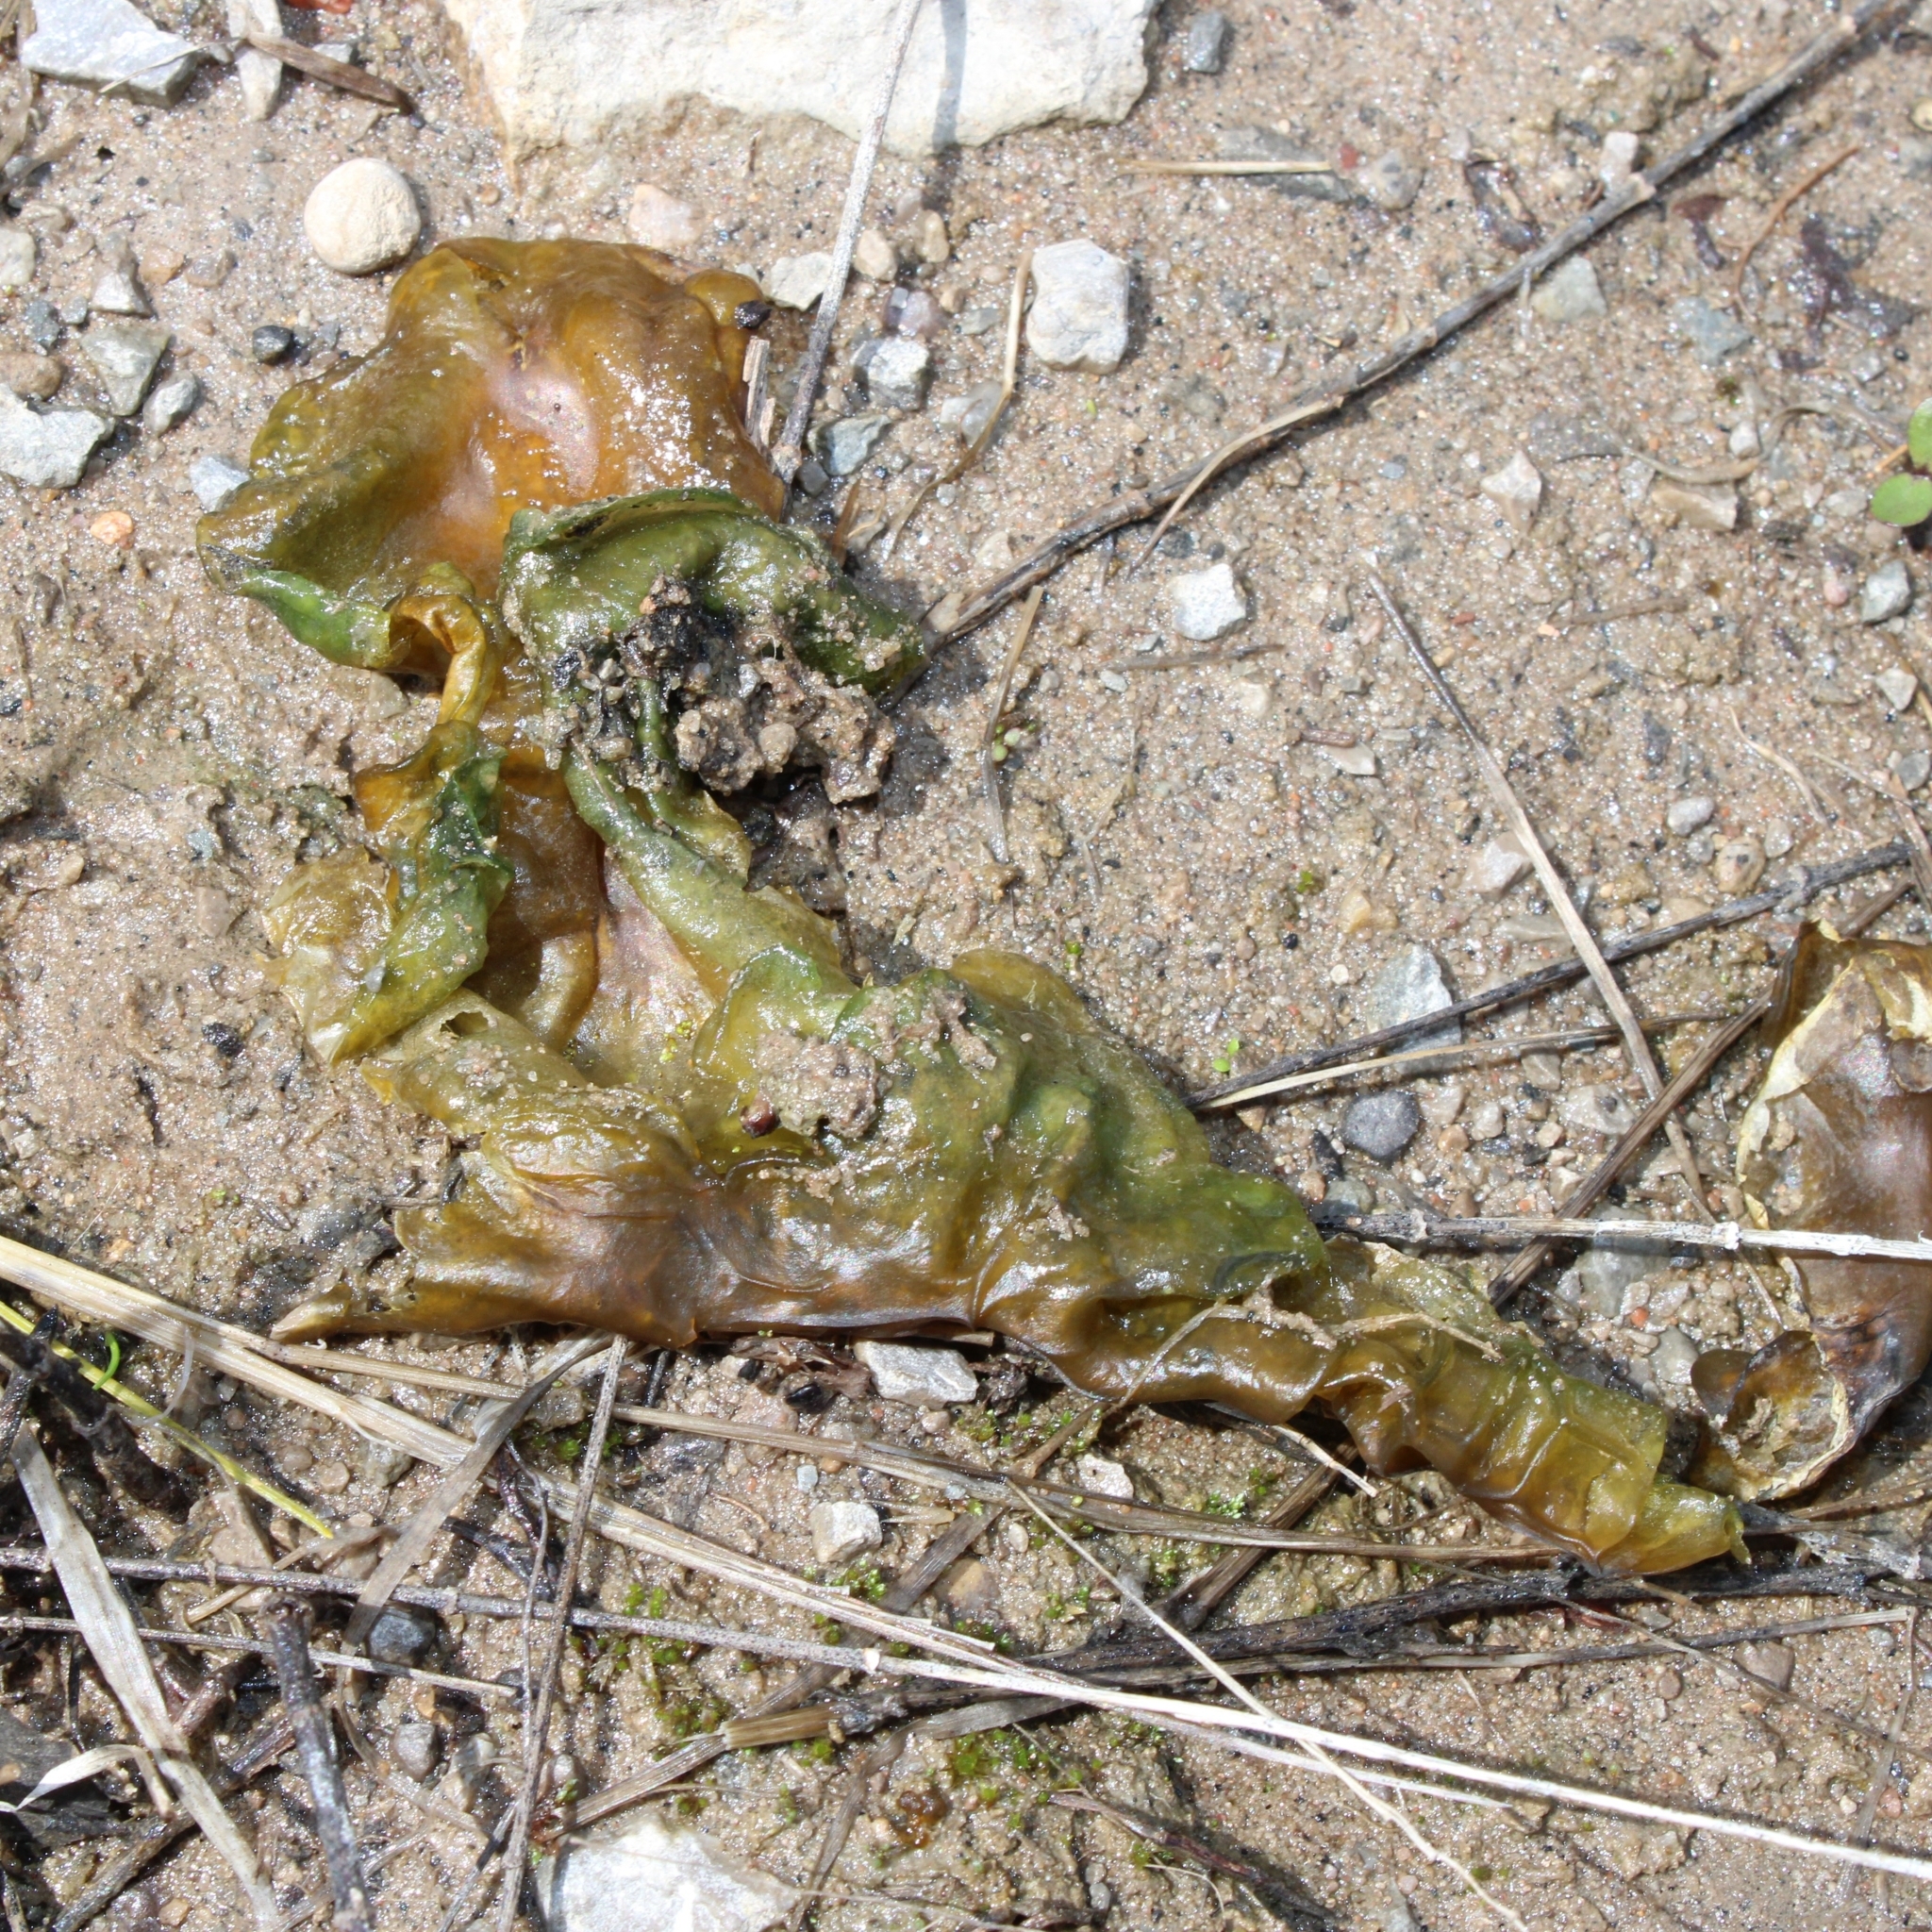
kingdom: Bacteria
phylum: Cyanobacteria
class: Cyanobacteriia
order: Cyanobacteriales
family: Nostocaceae
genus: Nostoc
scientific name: Nostoc commune
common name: Star jelly
